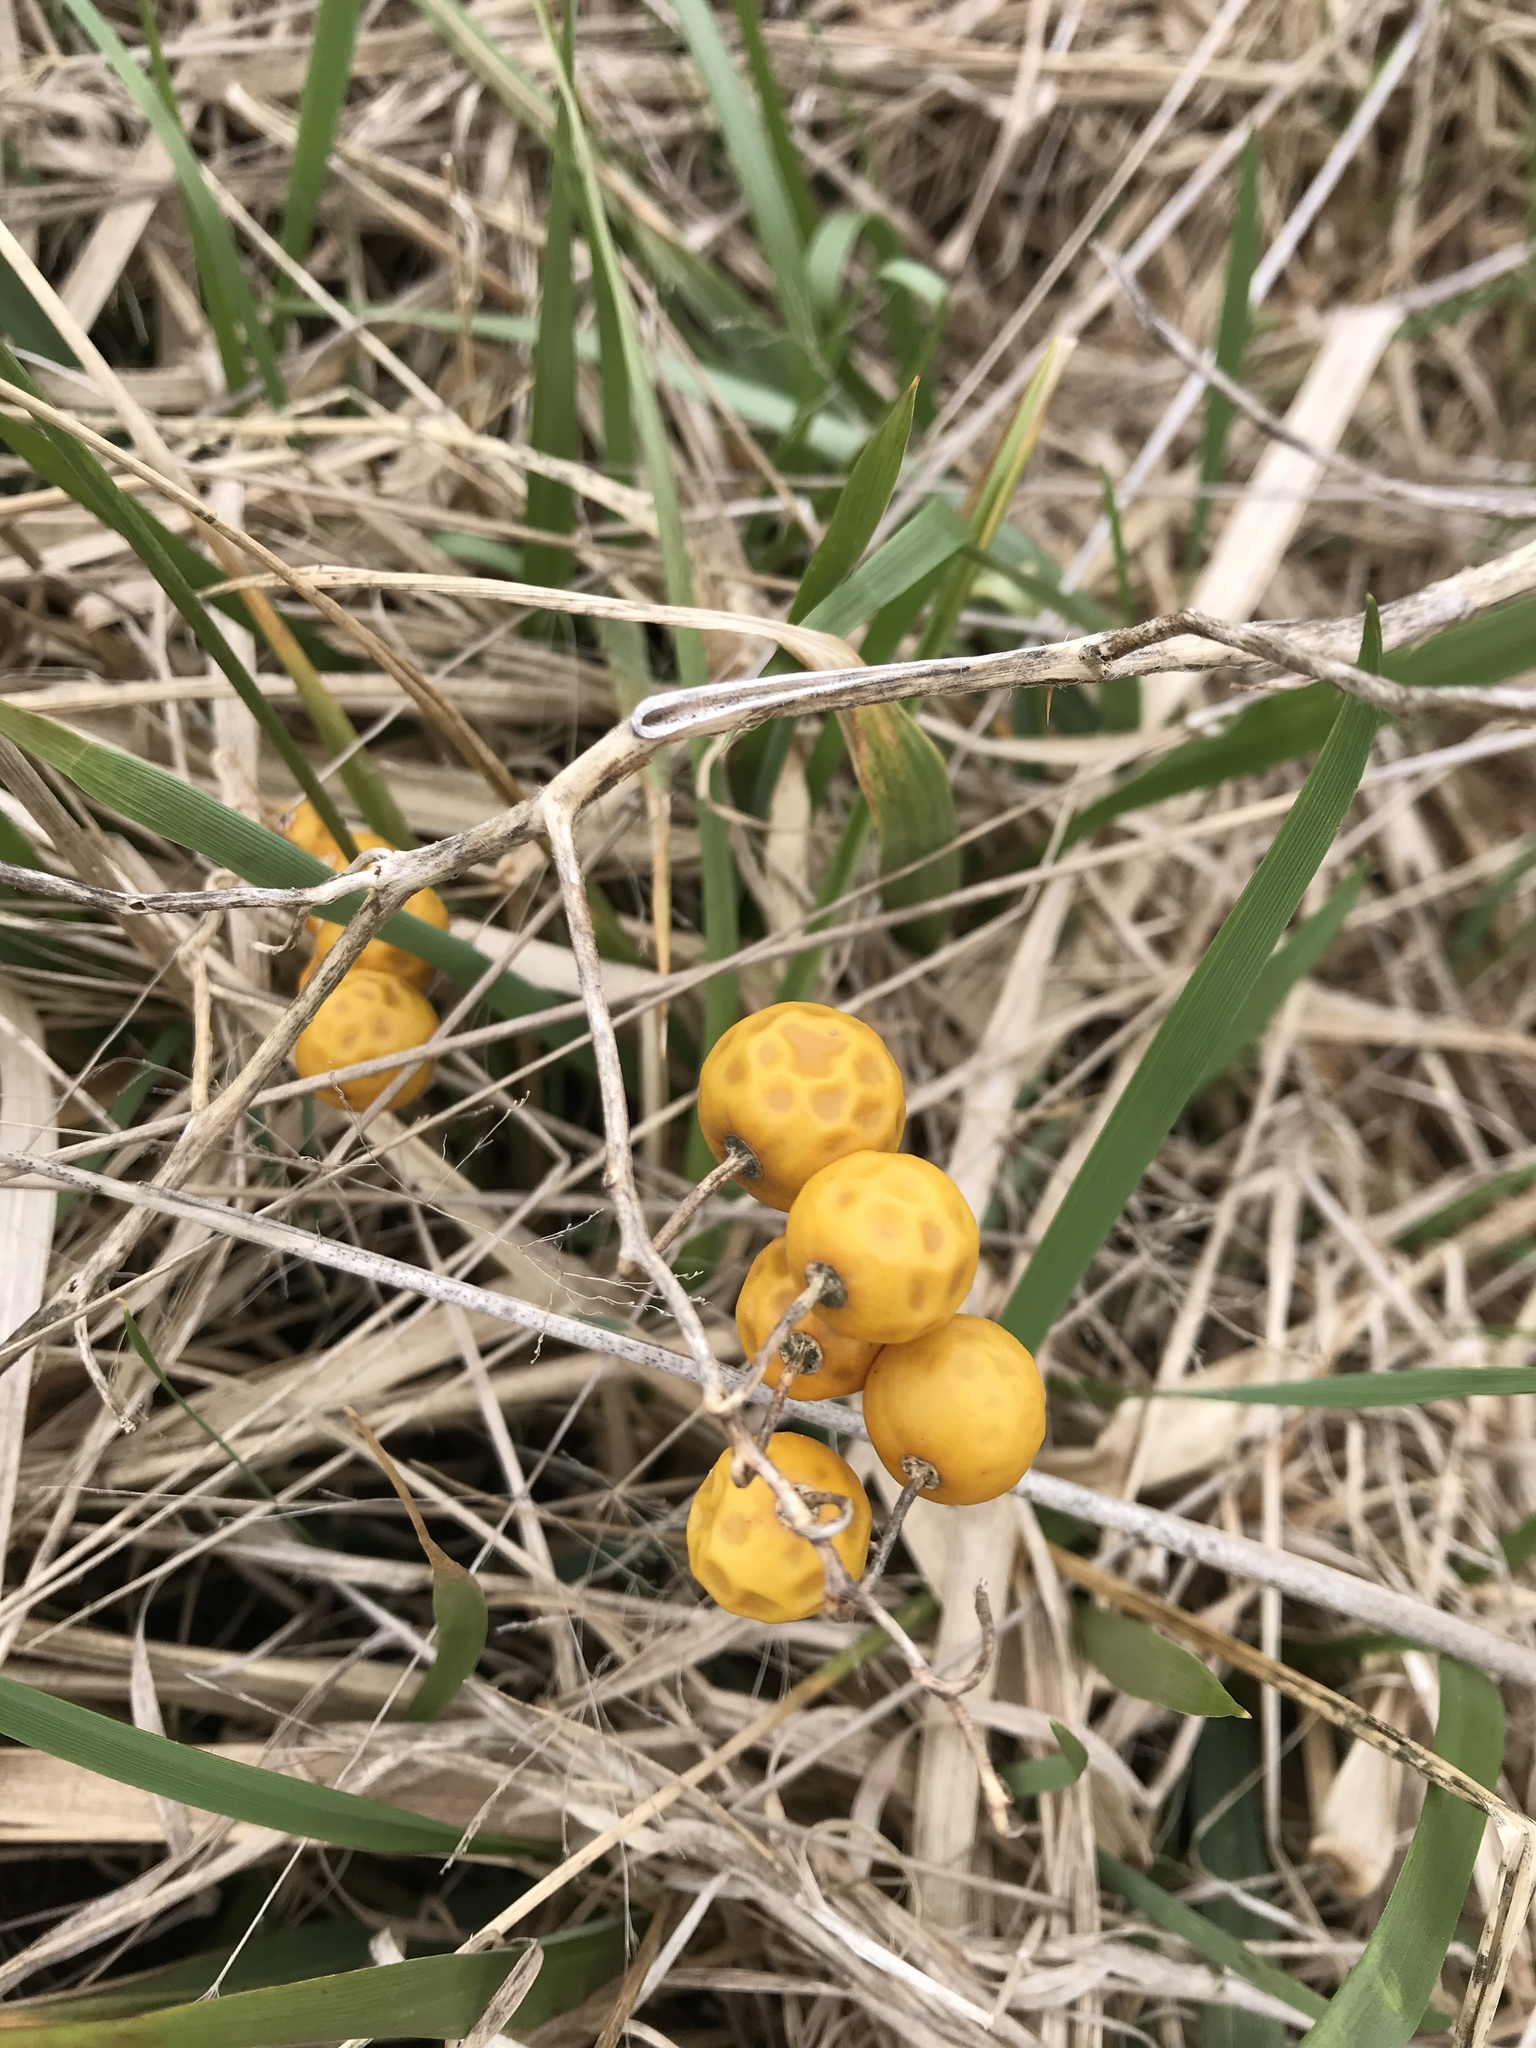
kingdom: Plantae
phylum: Tracheophyta
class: Magnoliopsida
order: Solanales
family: Solanaceae
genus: Solanum
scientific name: Solanum carolinense
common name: Horse-nettle
